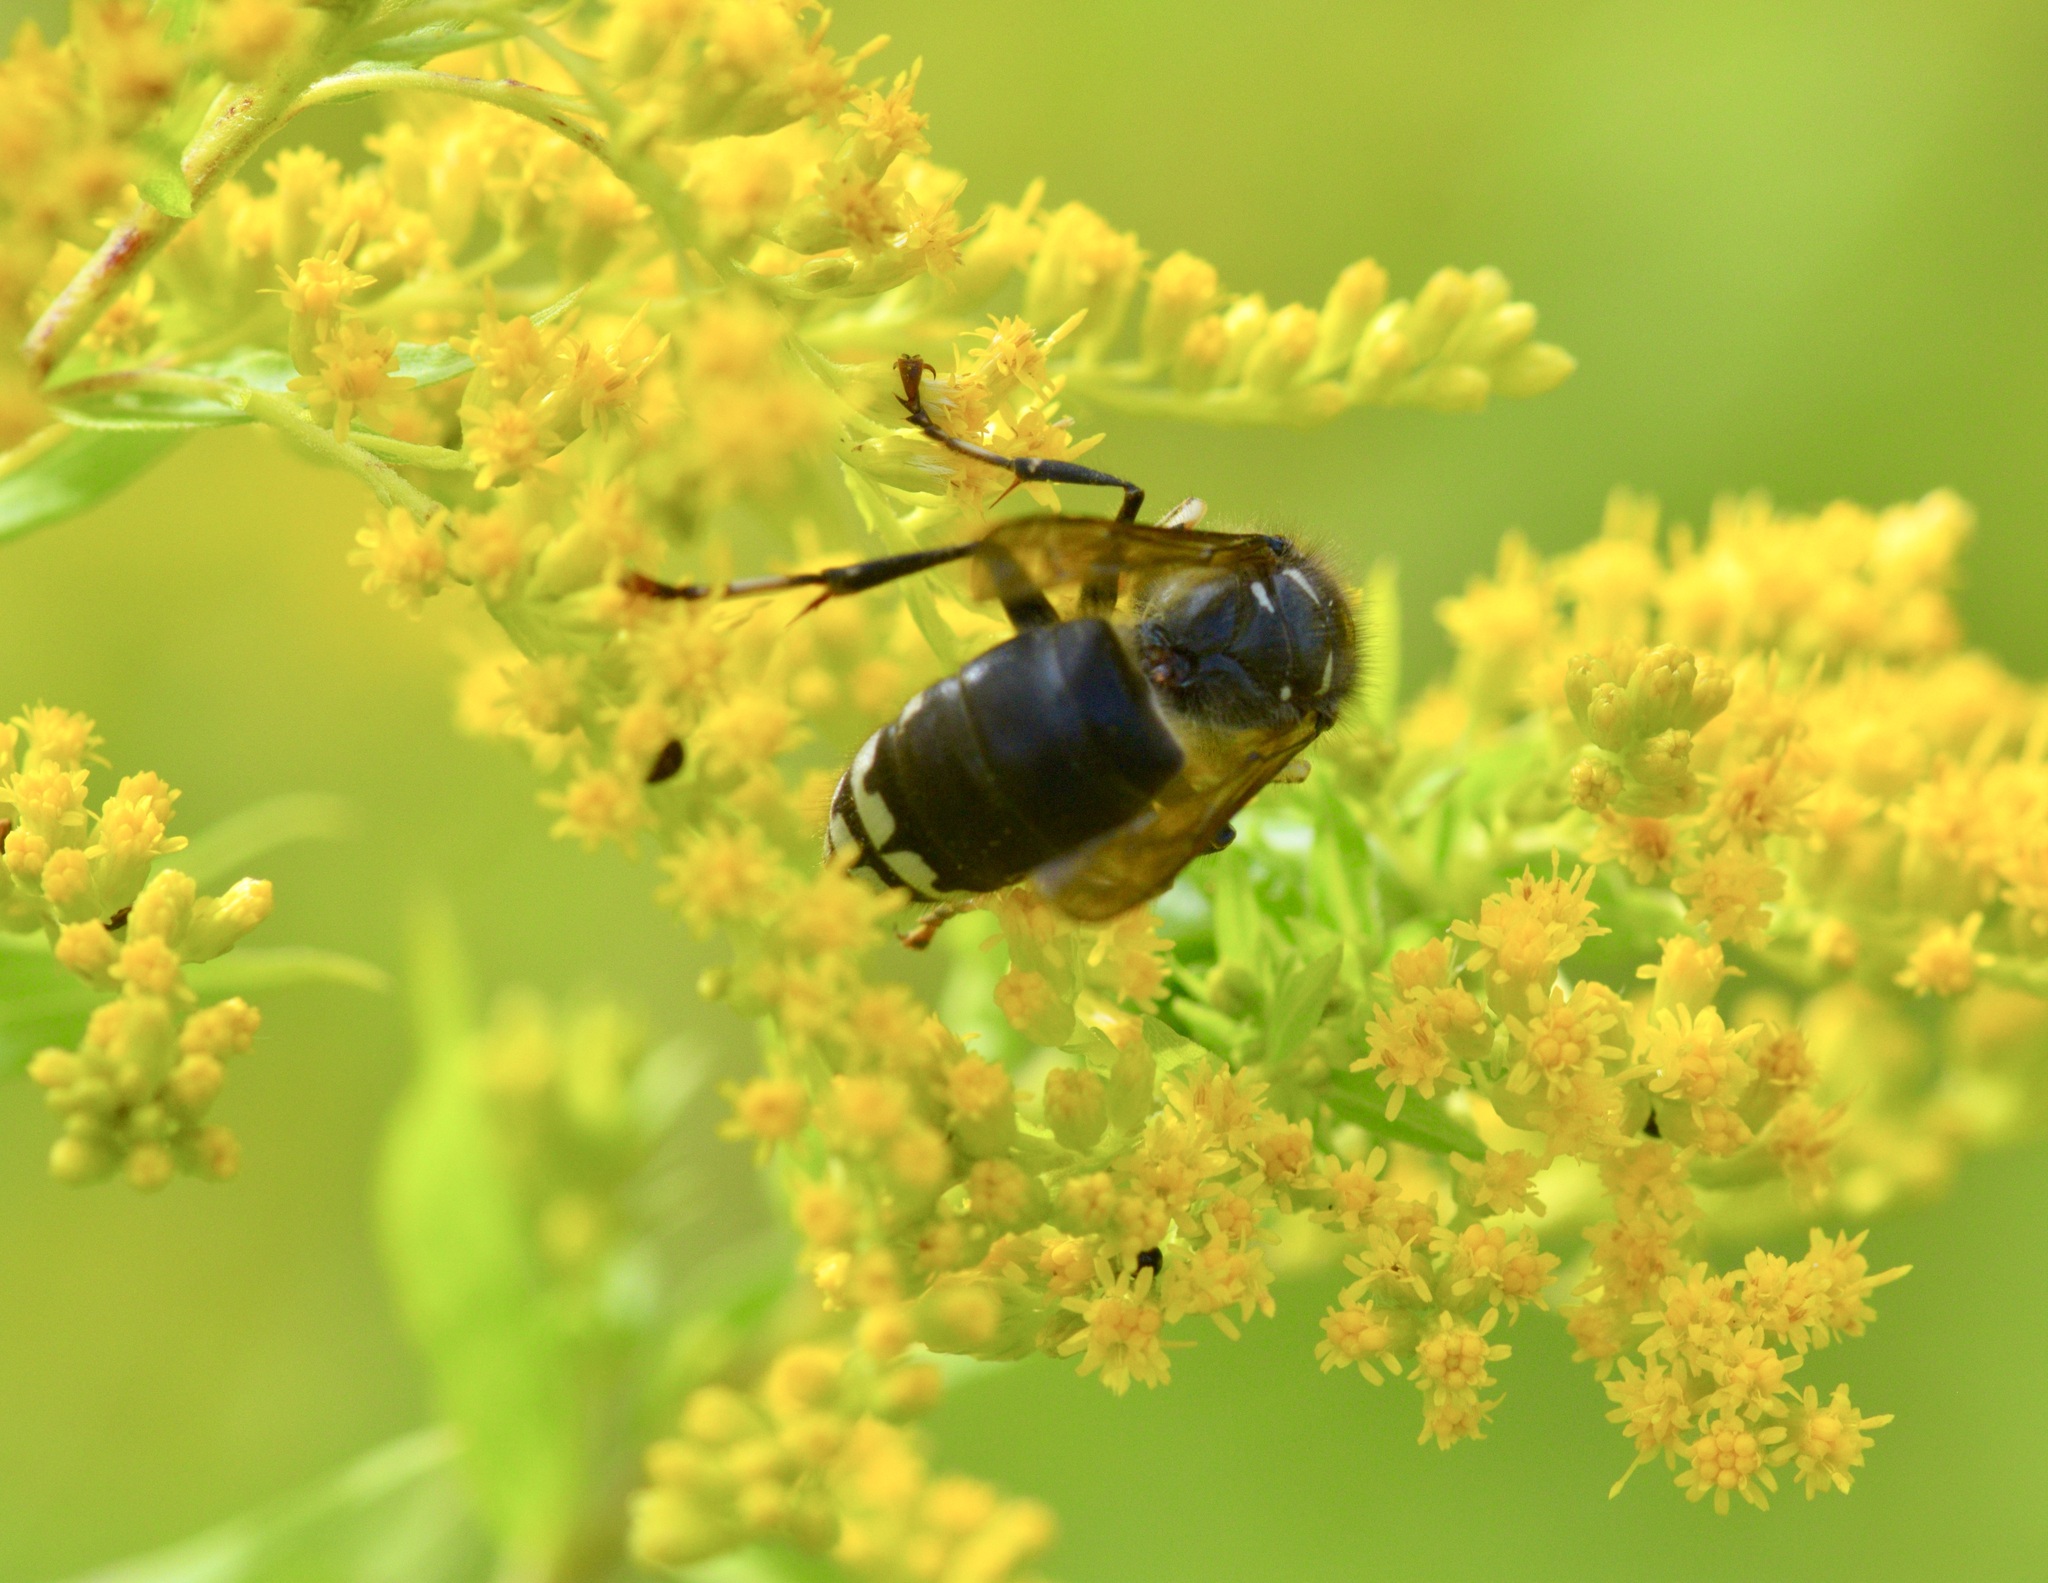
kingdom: Animalia
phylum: Arthropoda
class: Insecta
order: Hymenoptera
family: Vespidae
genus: Dolichovespula
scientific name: Dolichovespula maculata
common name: Bald-faced hornet
